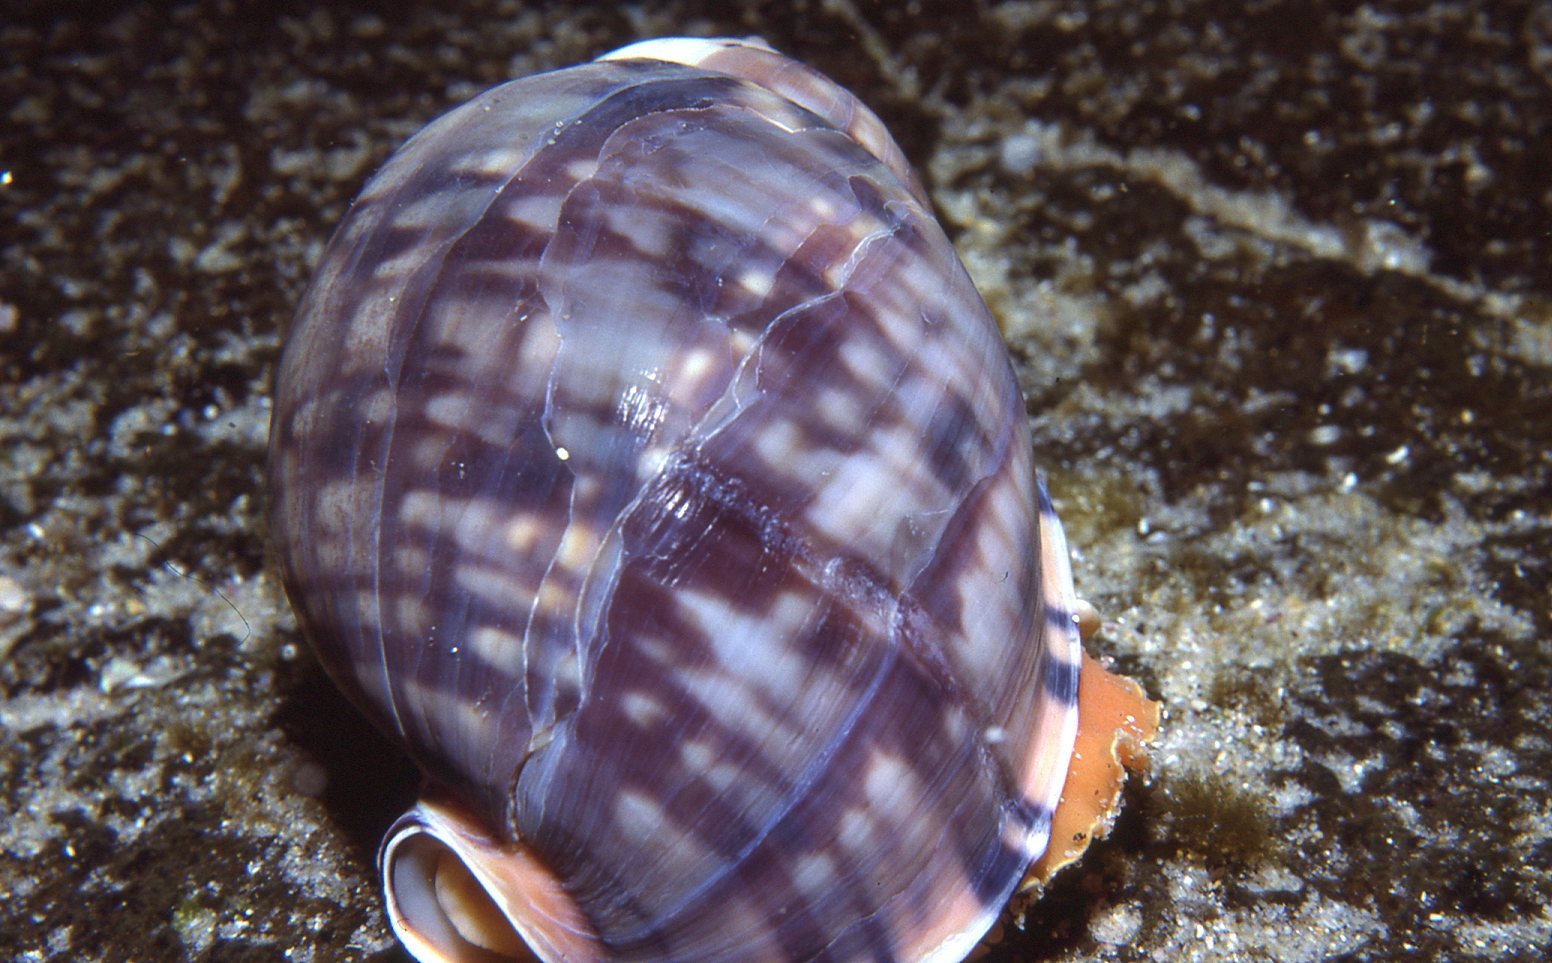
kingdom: Animalia
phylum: Mollusca
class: Gastropoda
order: Littorinimorpha
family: Cassidae
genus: Semicassis
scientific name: Semicassis labiata
